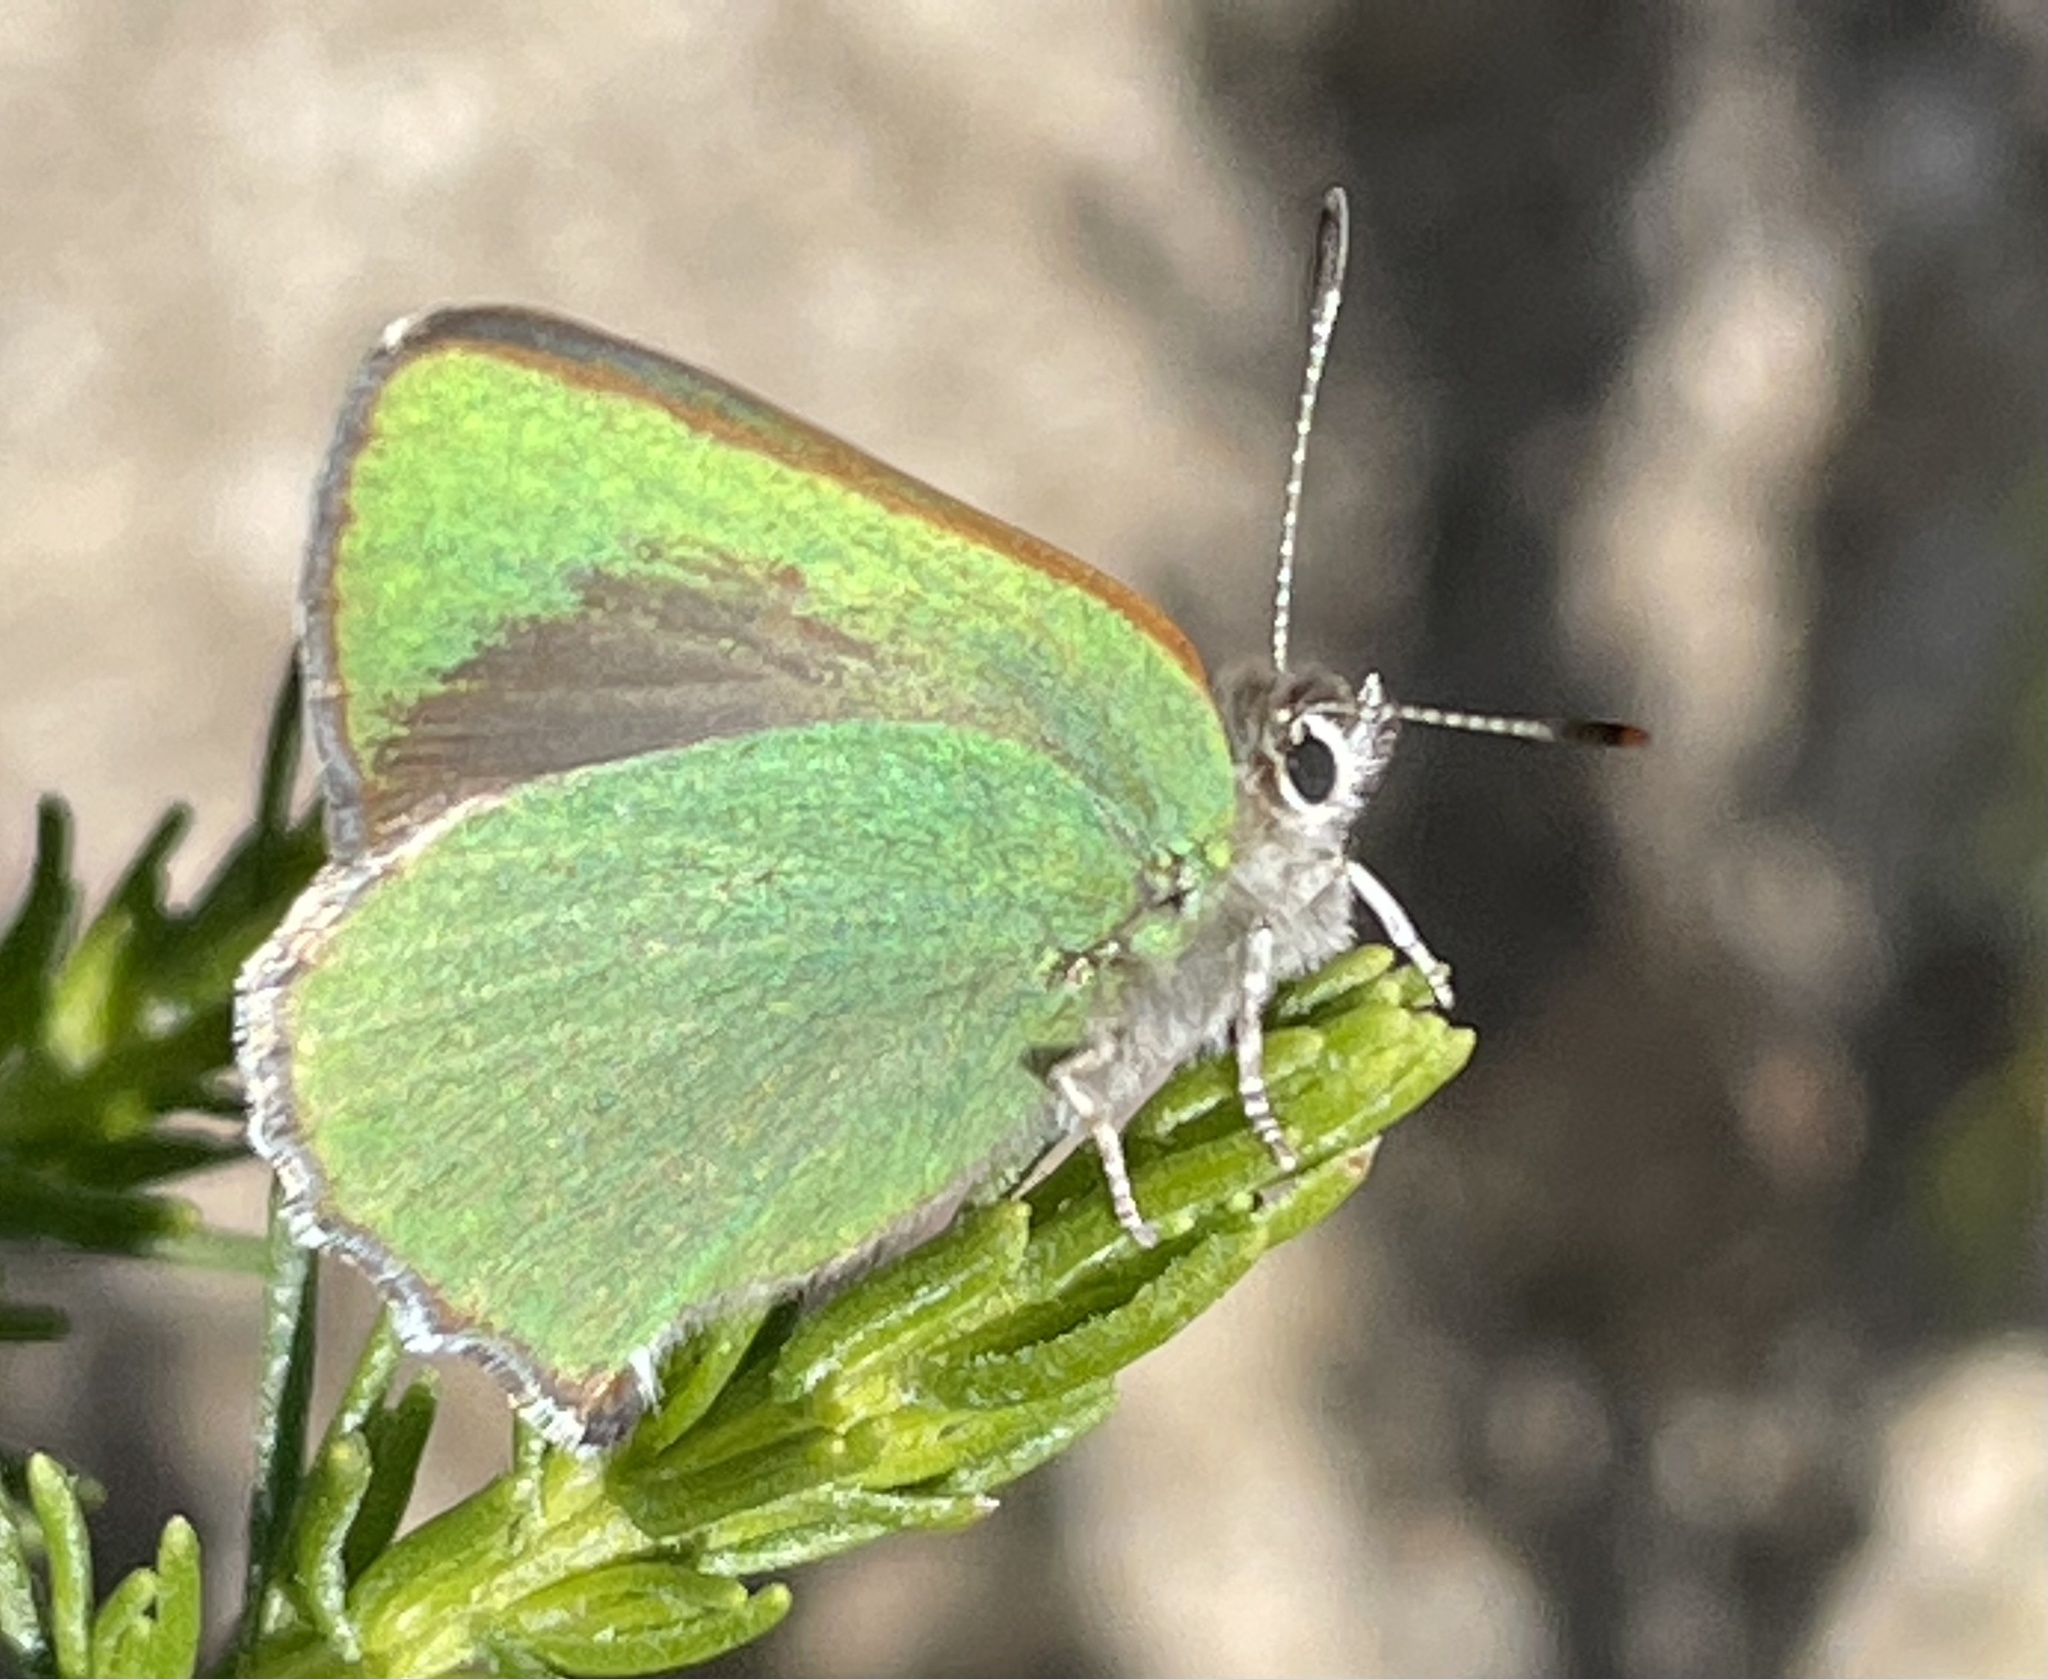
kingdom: Animalia
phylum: Arthropoda
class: Insecta
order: Lepidoptera
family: Lycaenidae
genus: Callophrys
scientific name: Callophrys dumetorum
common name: Bramble hairstreak
